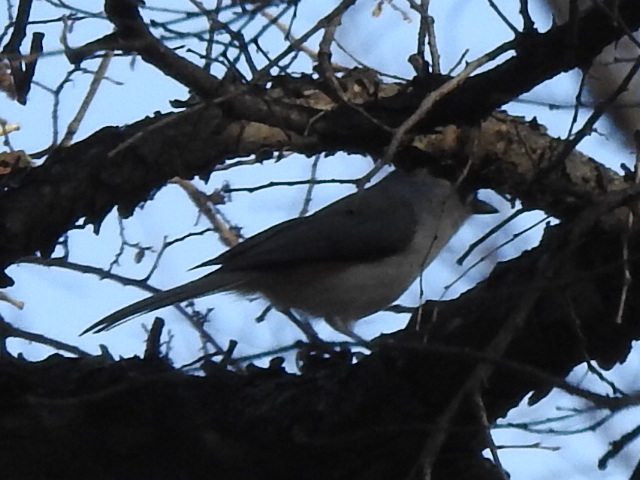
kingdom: Animalia
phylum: Chordata
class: Aves
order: Passeriformes
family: Paridae
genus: Baeolophus
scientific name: Baeolophus bicolor
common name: Tufted titmouse
